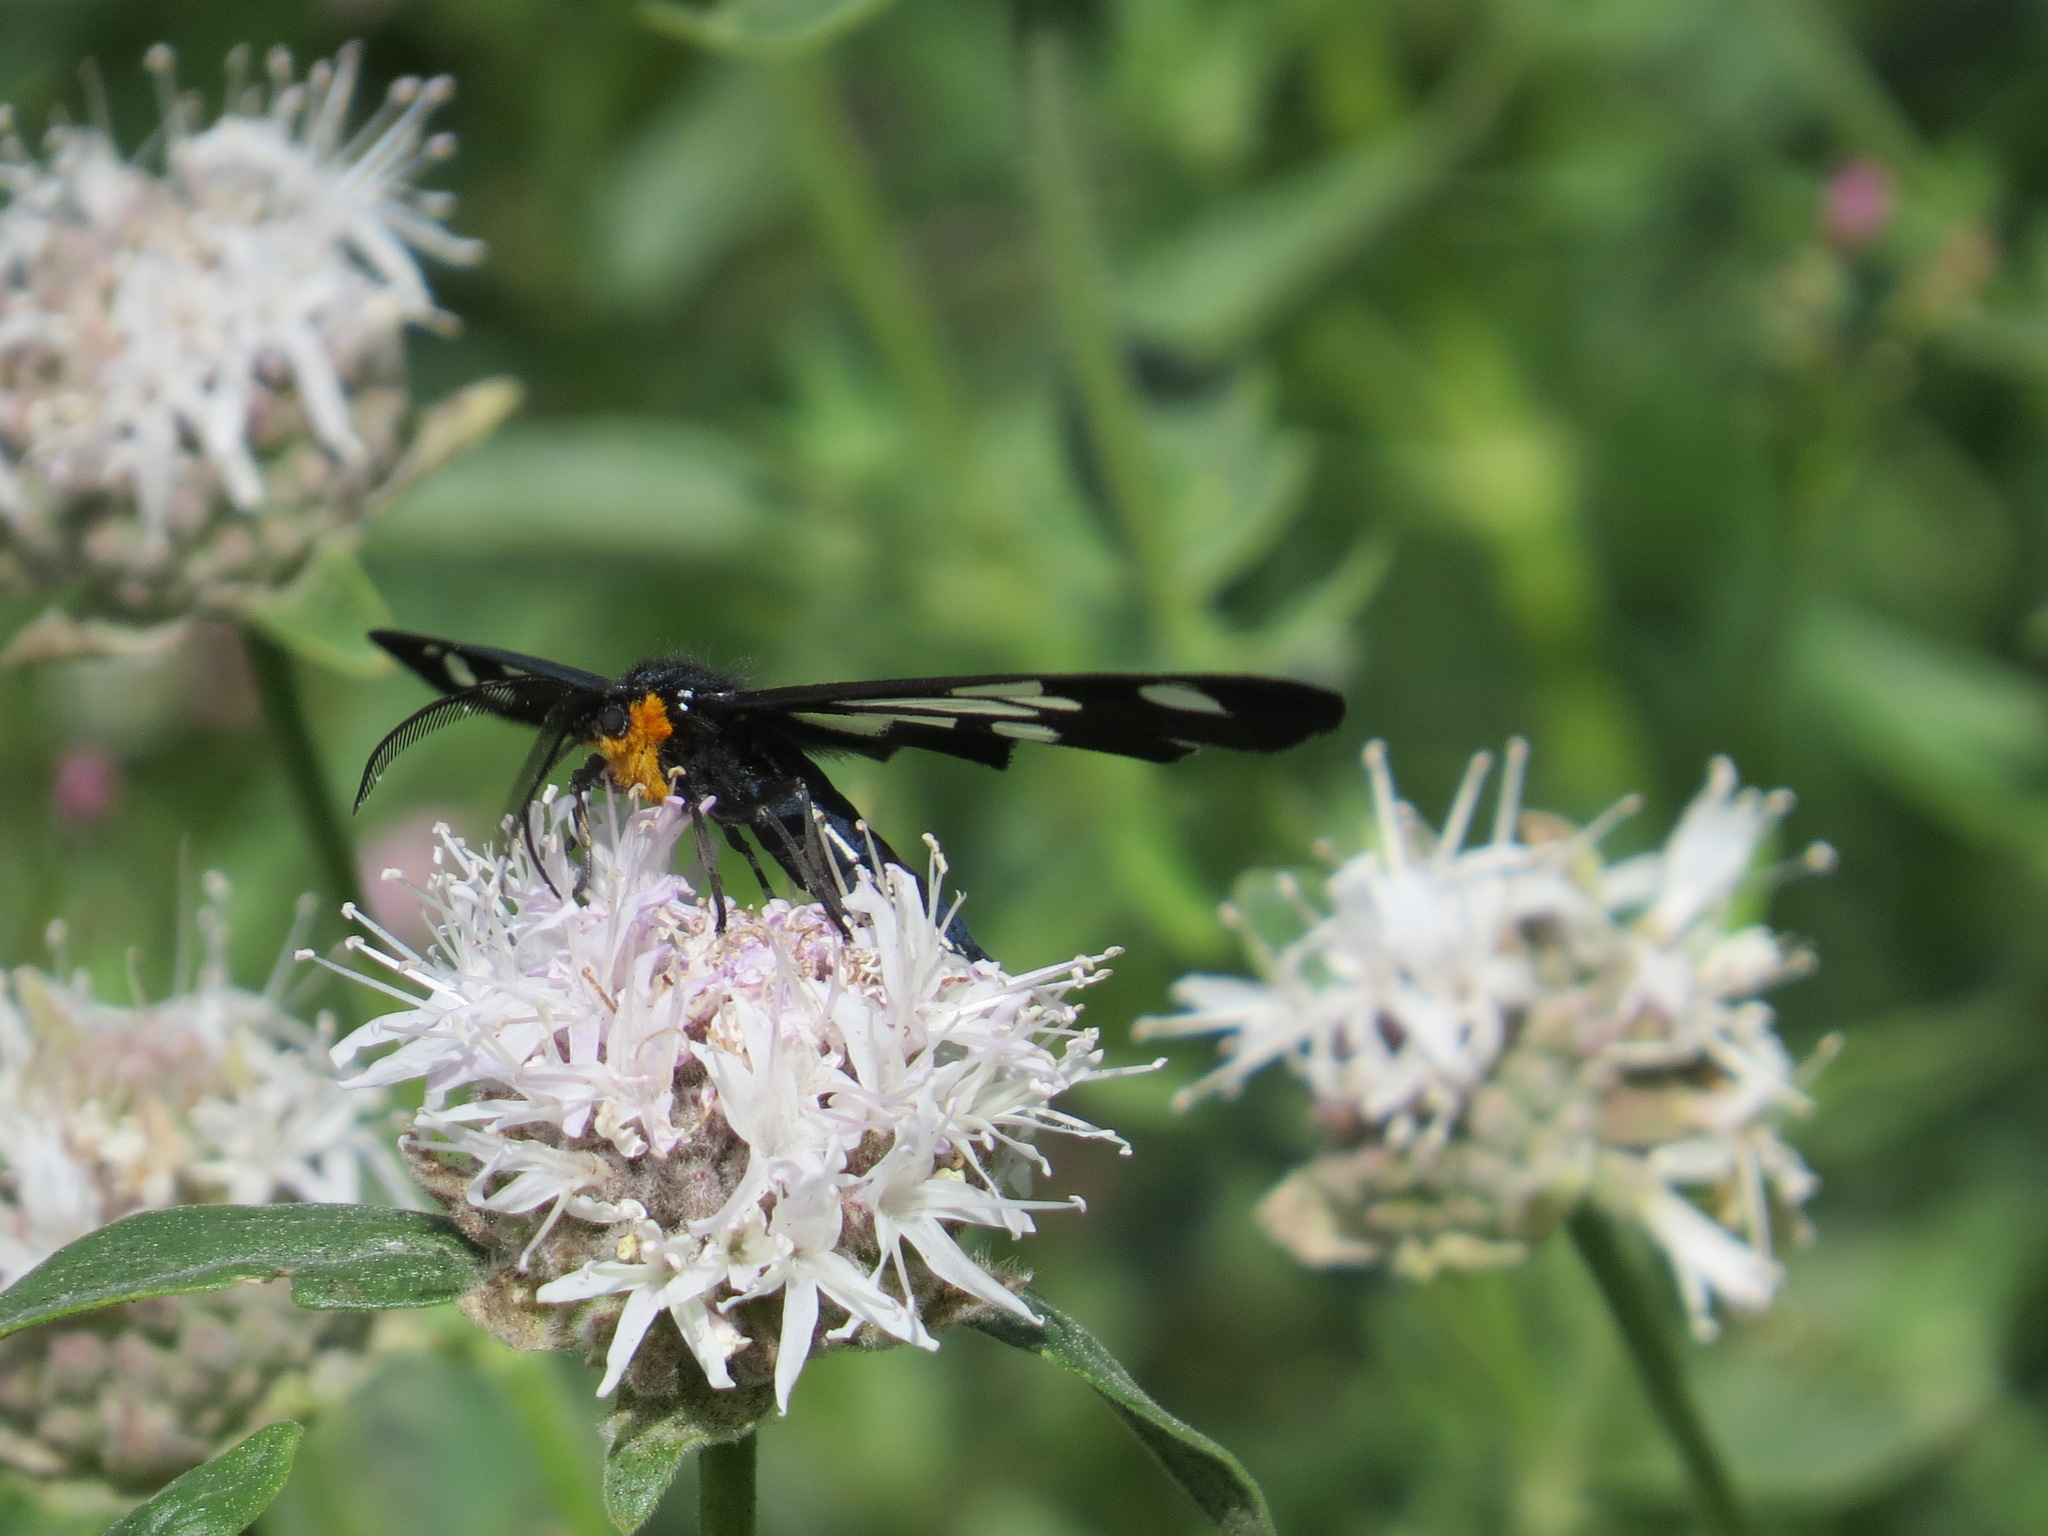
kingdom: Animalia
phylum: Arthropoda
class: Insecta
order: Lepidoptera
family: Erebidae
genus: Gnophaela
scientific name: Gnophaela latipennis
